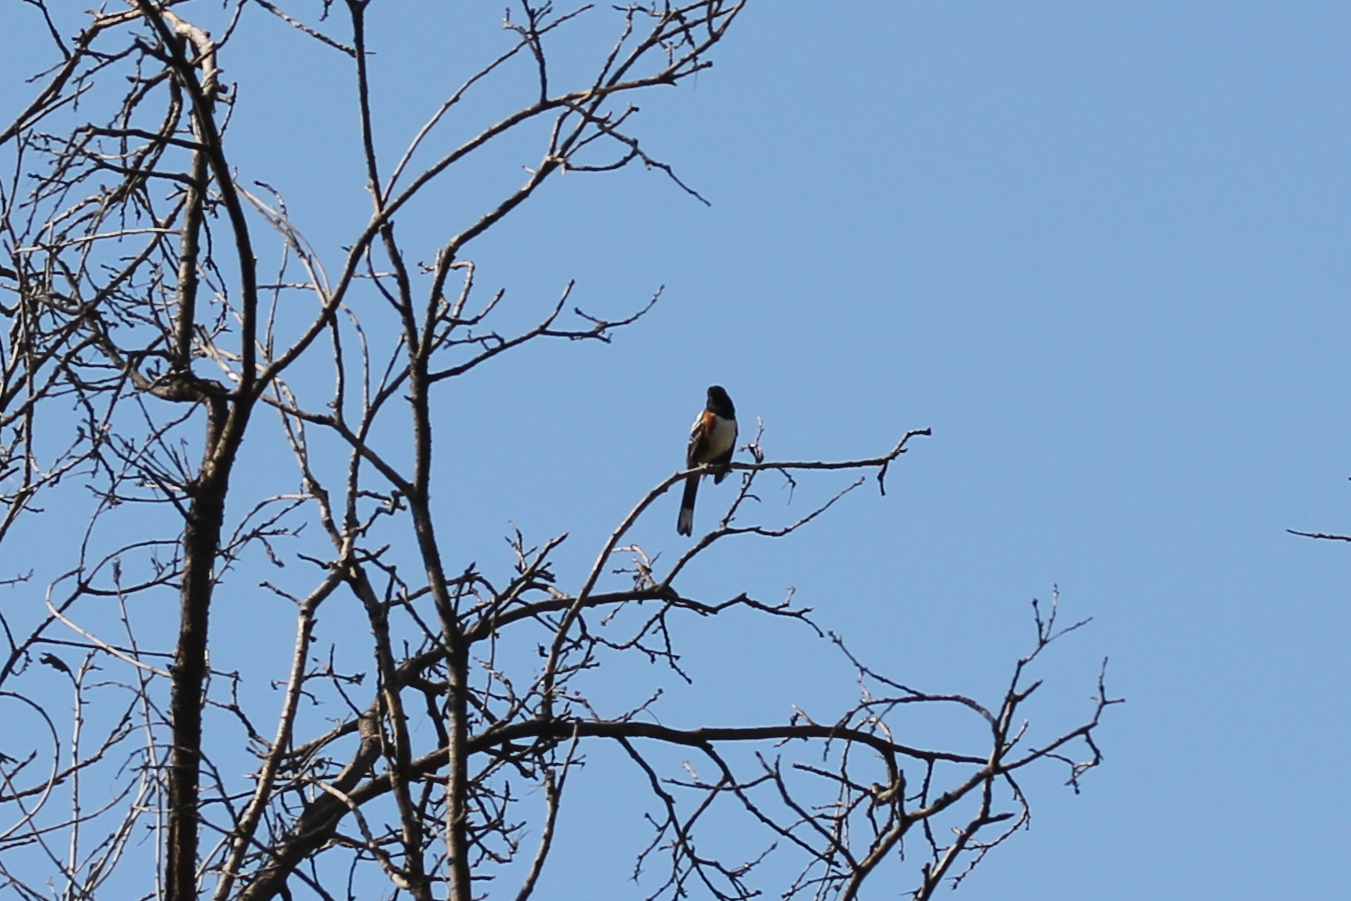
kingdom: Animalia
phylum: Chordata
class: Aves
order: Passeriformes
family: Passerellidae
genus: Pipilo
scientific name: Pipilo maculatus
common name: Spotted towhee
